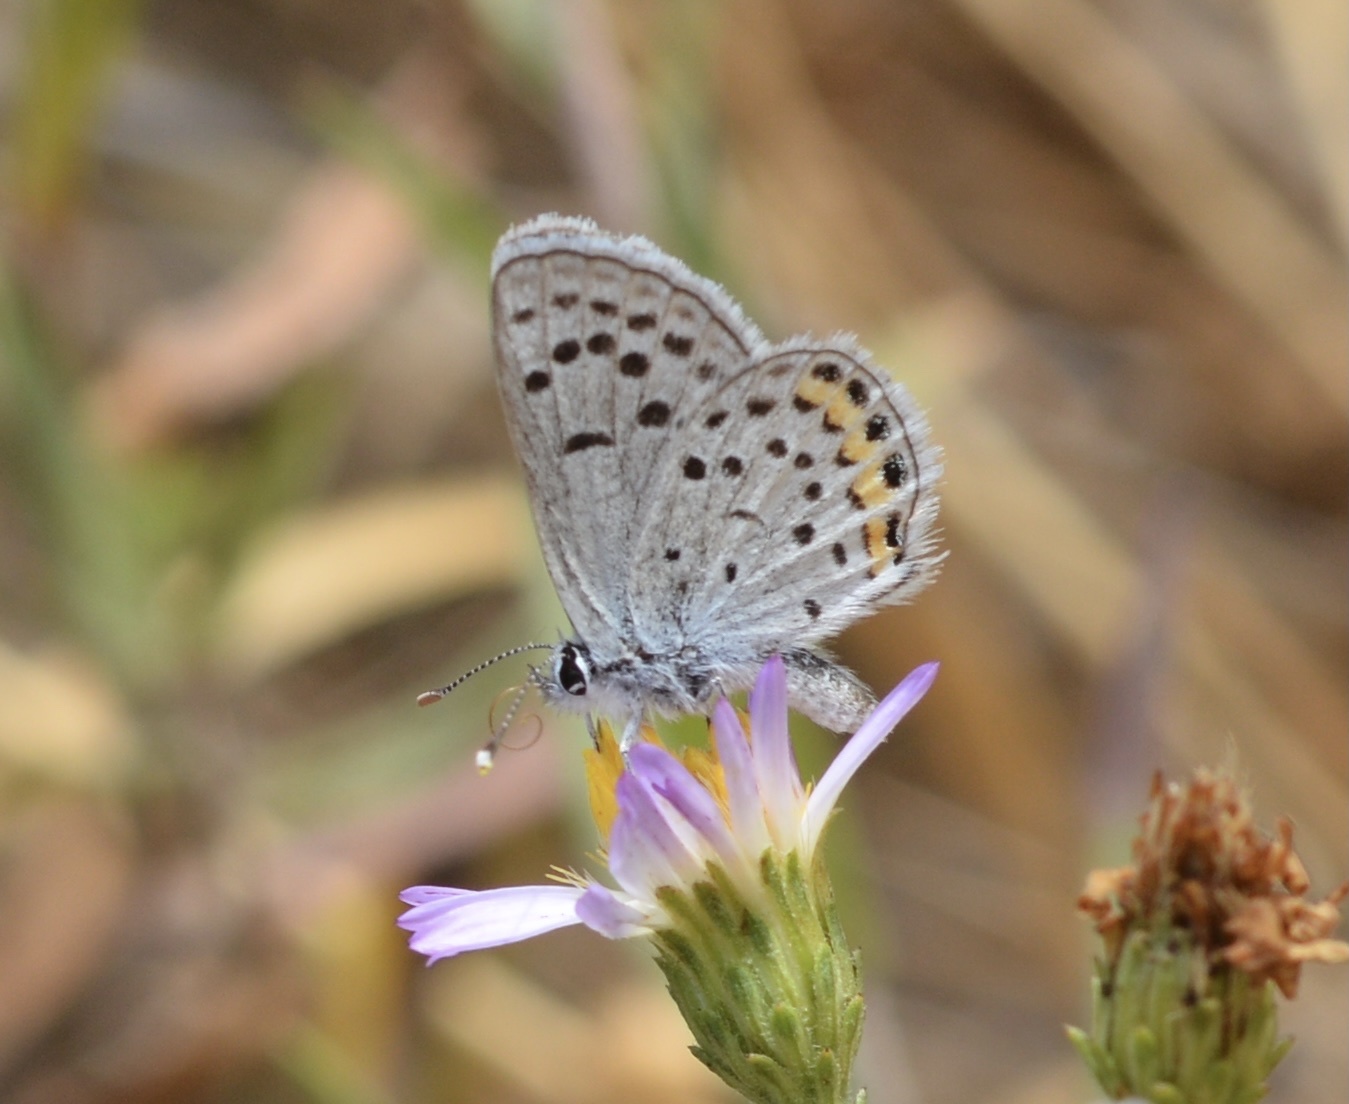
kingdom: Animalia
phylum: Arthropoda
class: Insecta
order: Lepidoptera
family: Lycaenidae
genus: Icaricia
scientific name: Icaricia acmon
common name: Acmon blue
